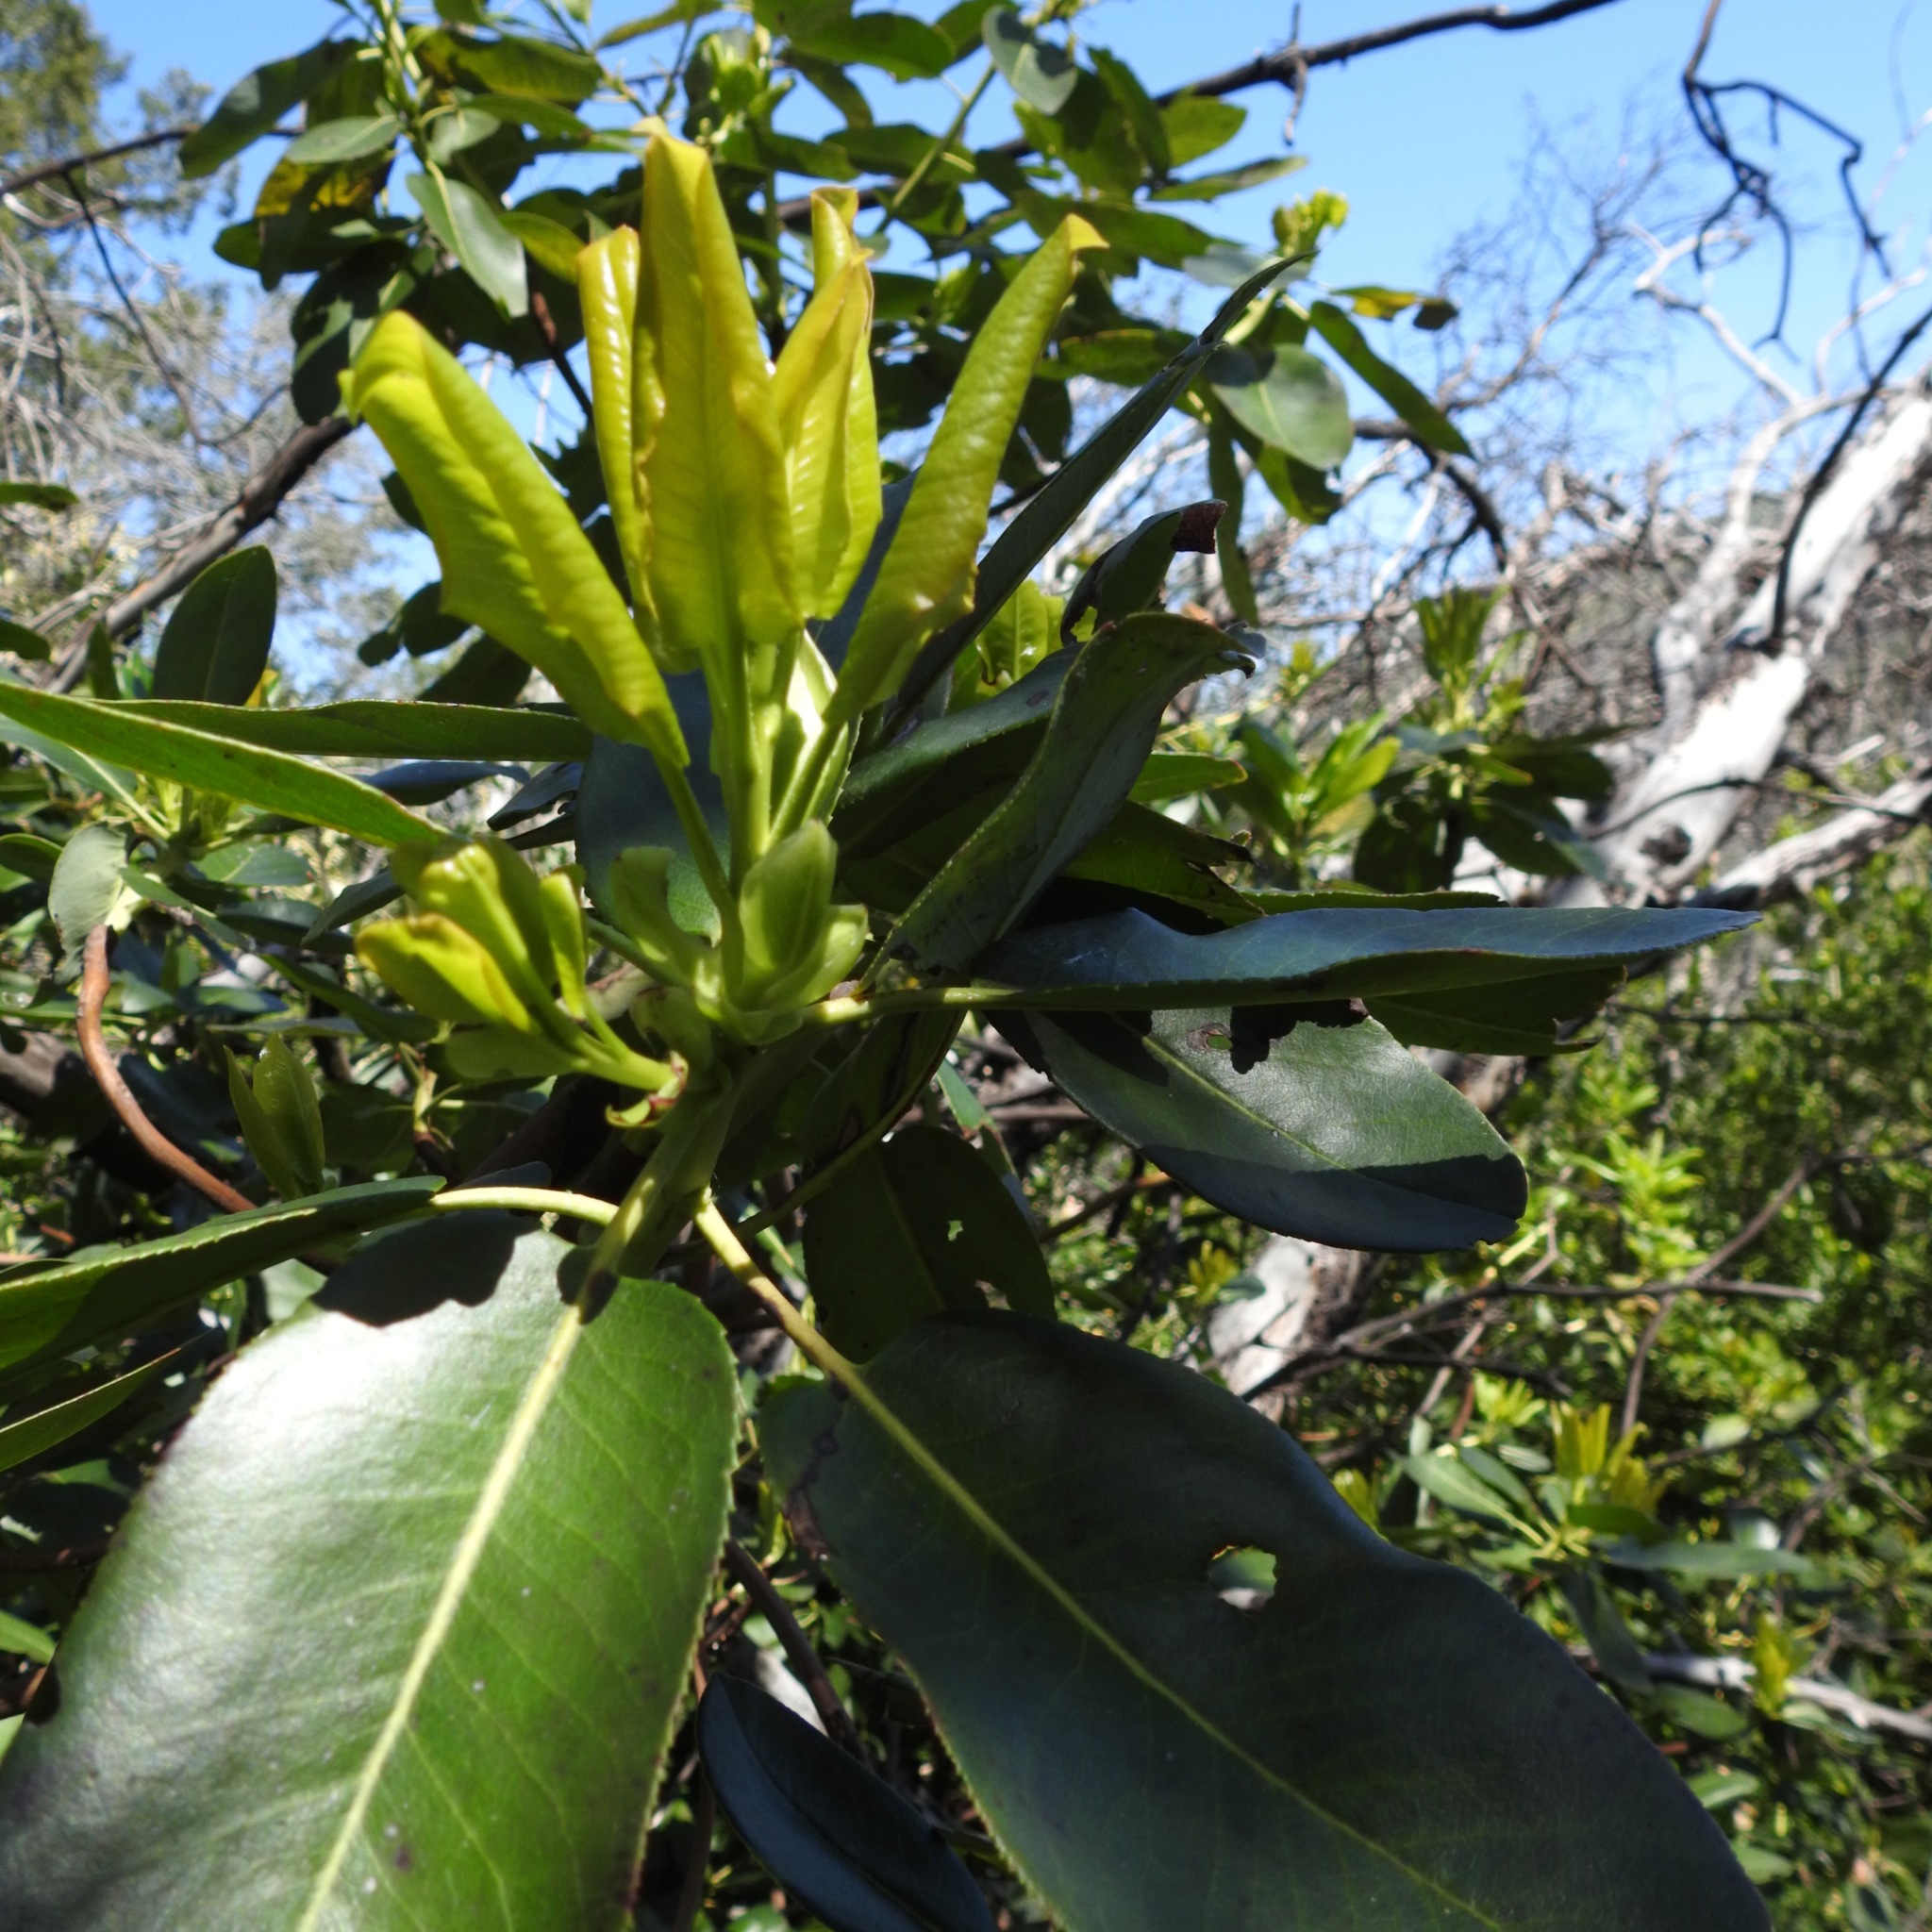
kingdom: Plantae
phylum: Tracheophyta
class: Magnoliopsida
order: Ericales
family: Ericaceae
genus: Arbutus
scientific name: Arbutus menziesii
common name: Pacific madrone
